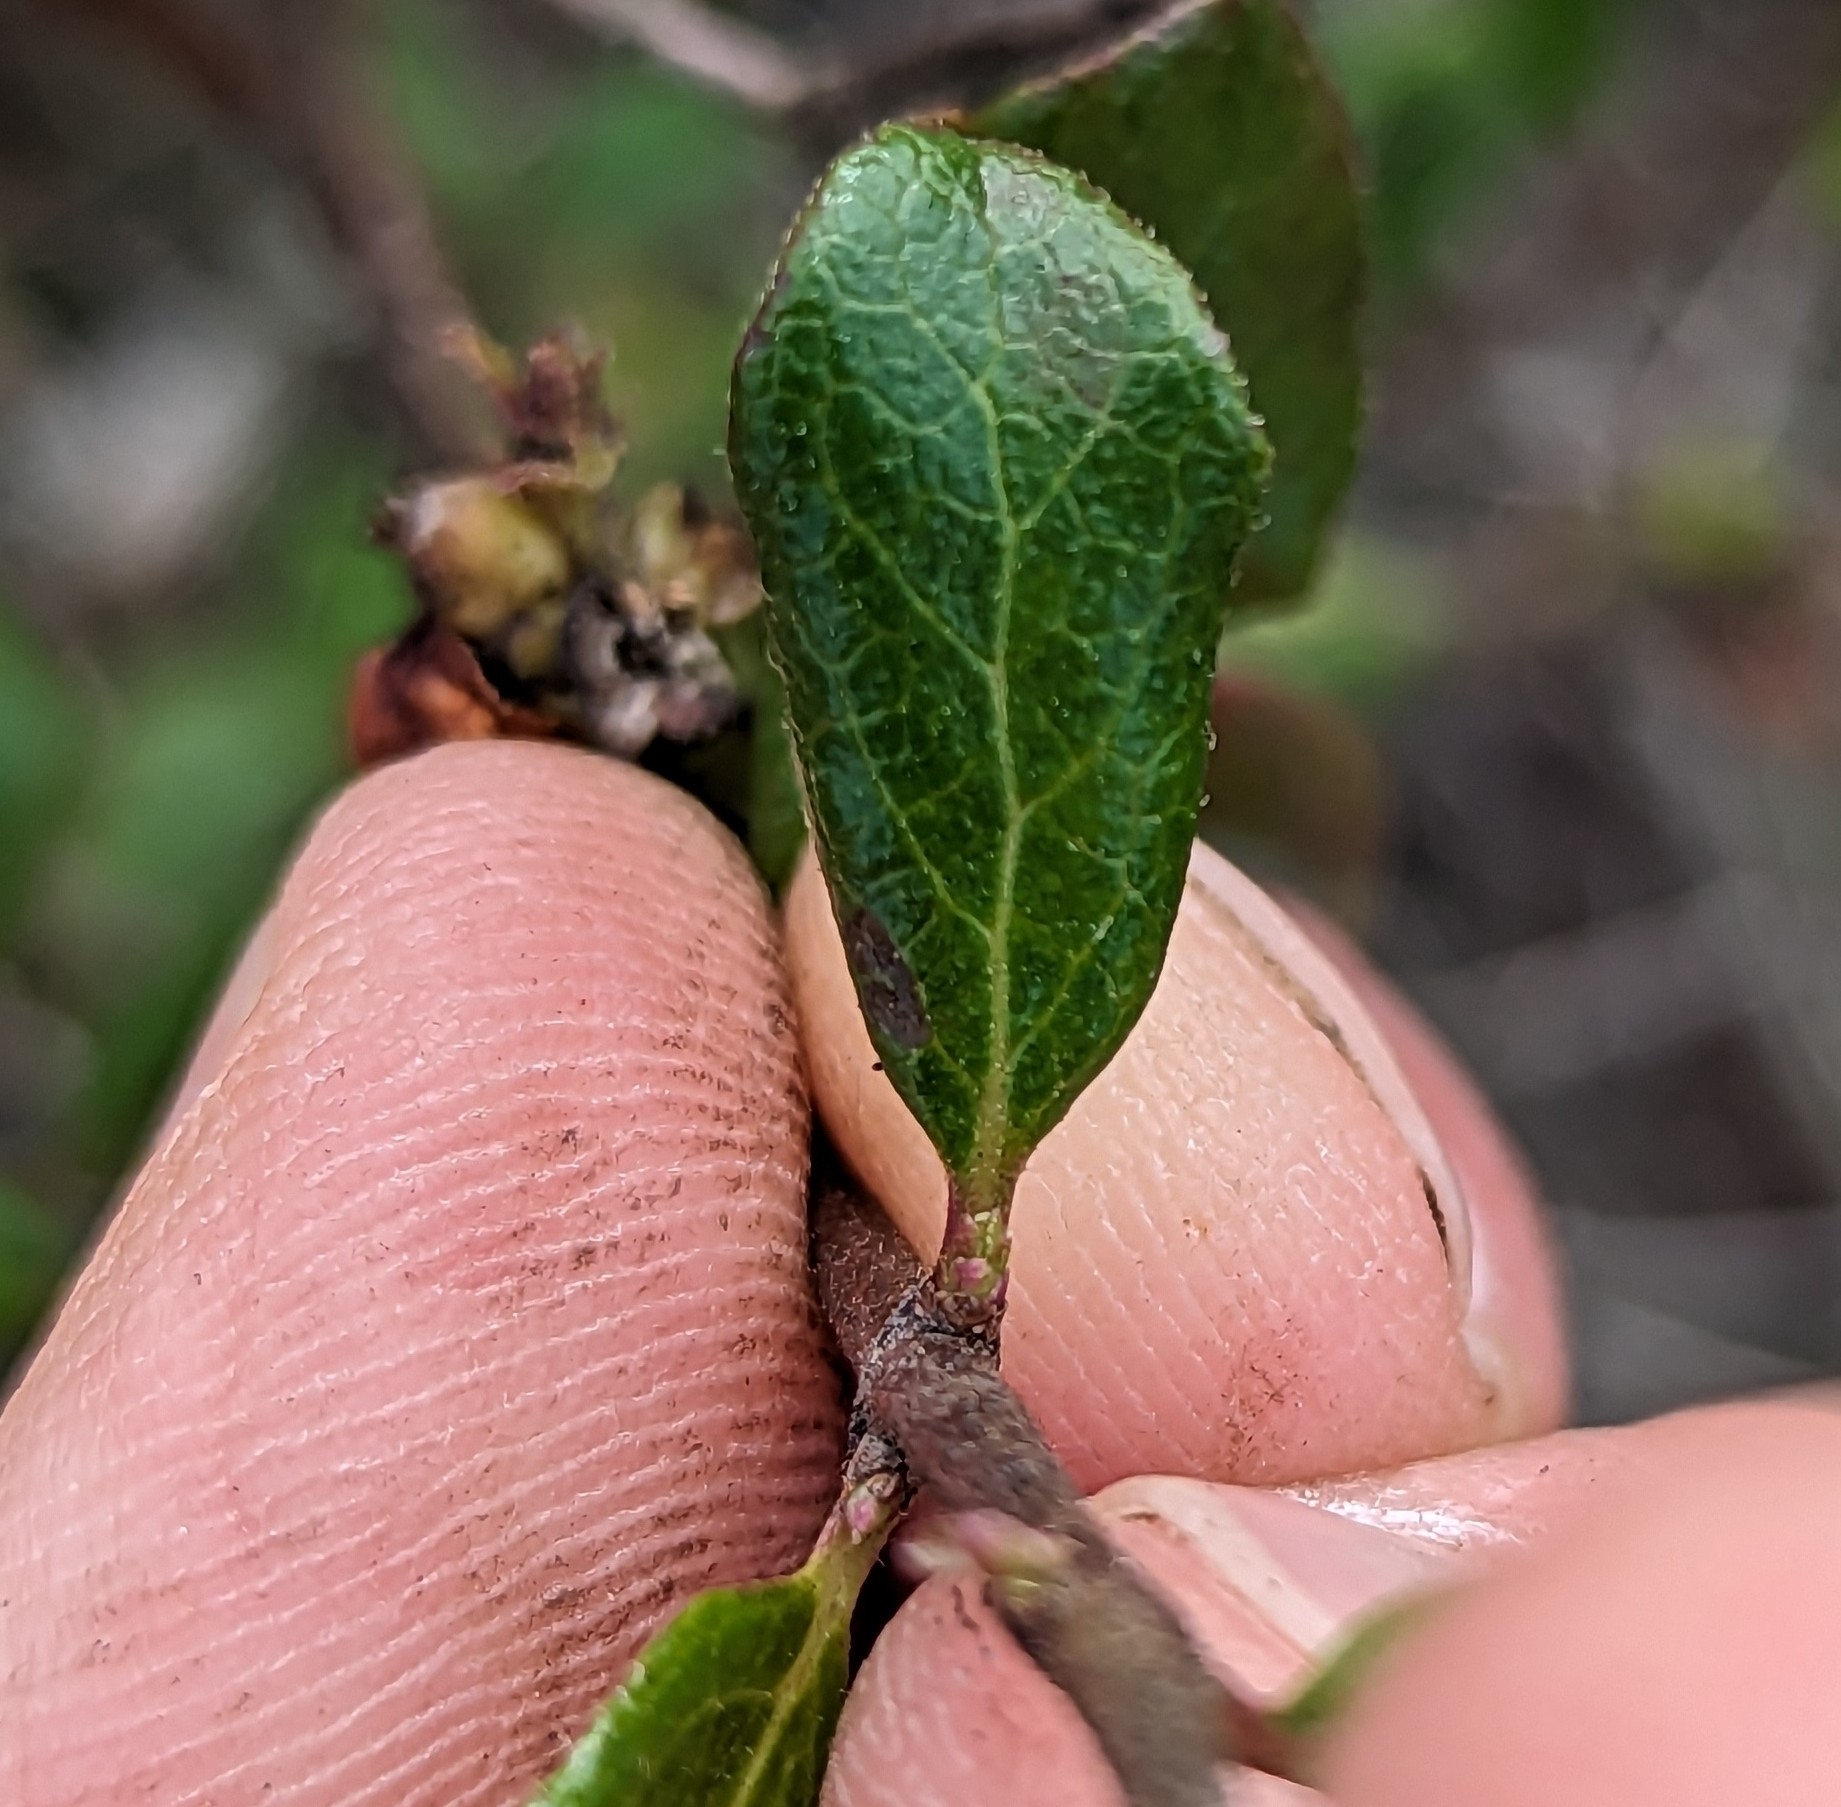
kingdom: Plantae
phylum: Tracheophyta
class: Magnoliopsida
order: Dipsacales
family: Caprifoliaceae
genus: Lonicera
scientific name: Lonicera subspicata
